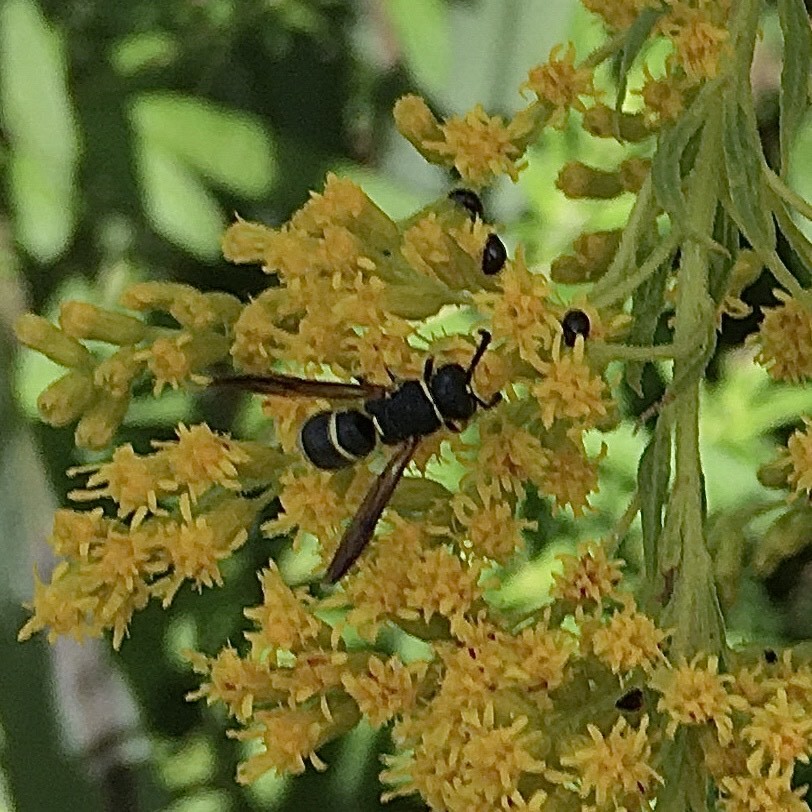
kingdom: Animalia
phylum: Arthropoda
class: Insecta
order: Hymenoptera
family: Eumenidae
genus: Euodynerus
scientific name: Euodynerus
